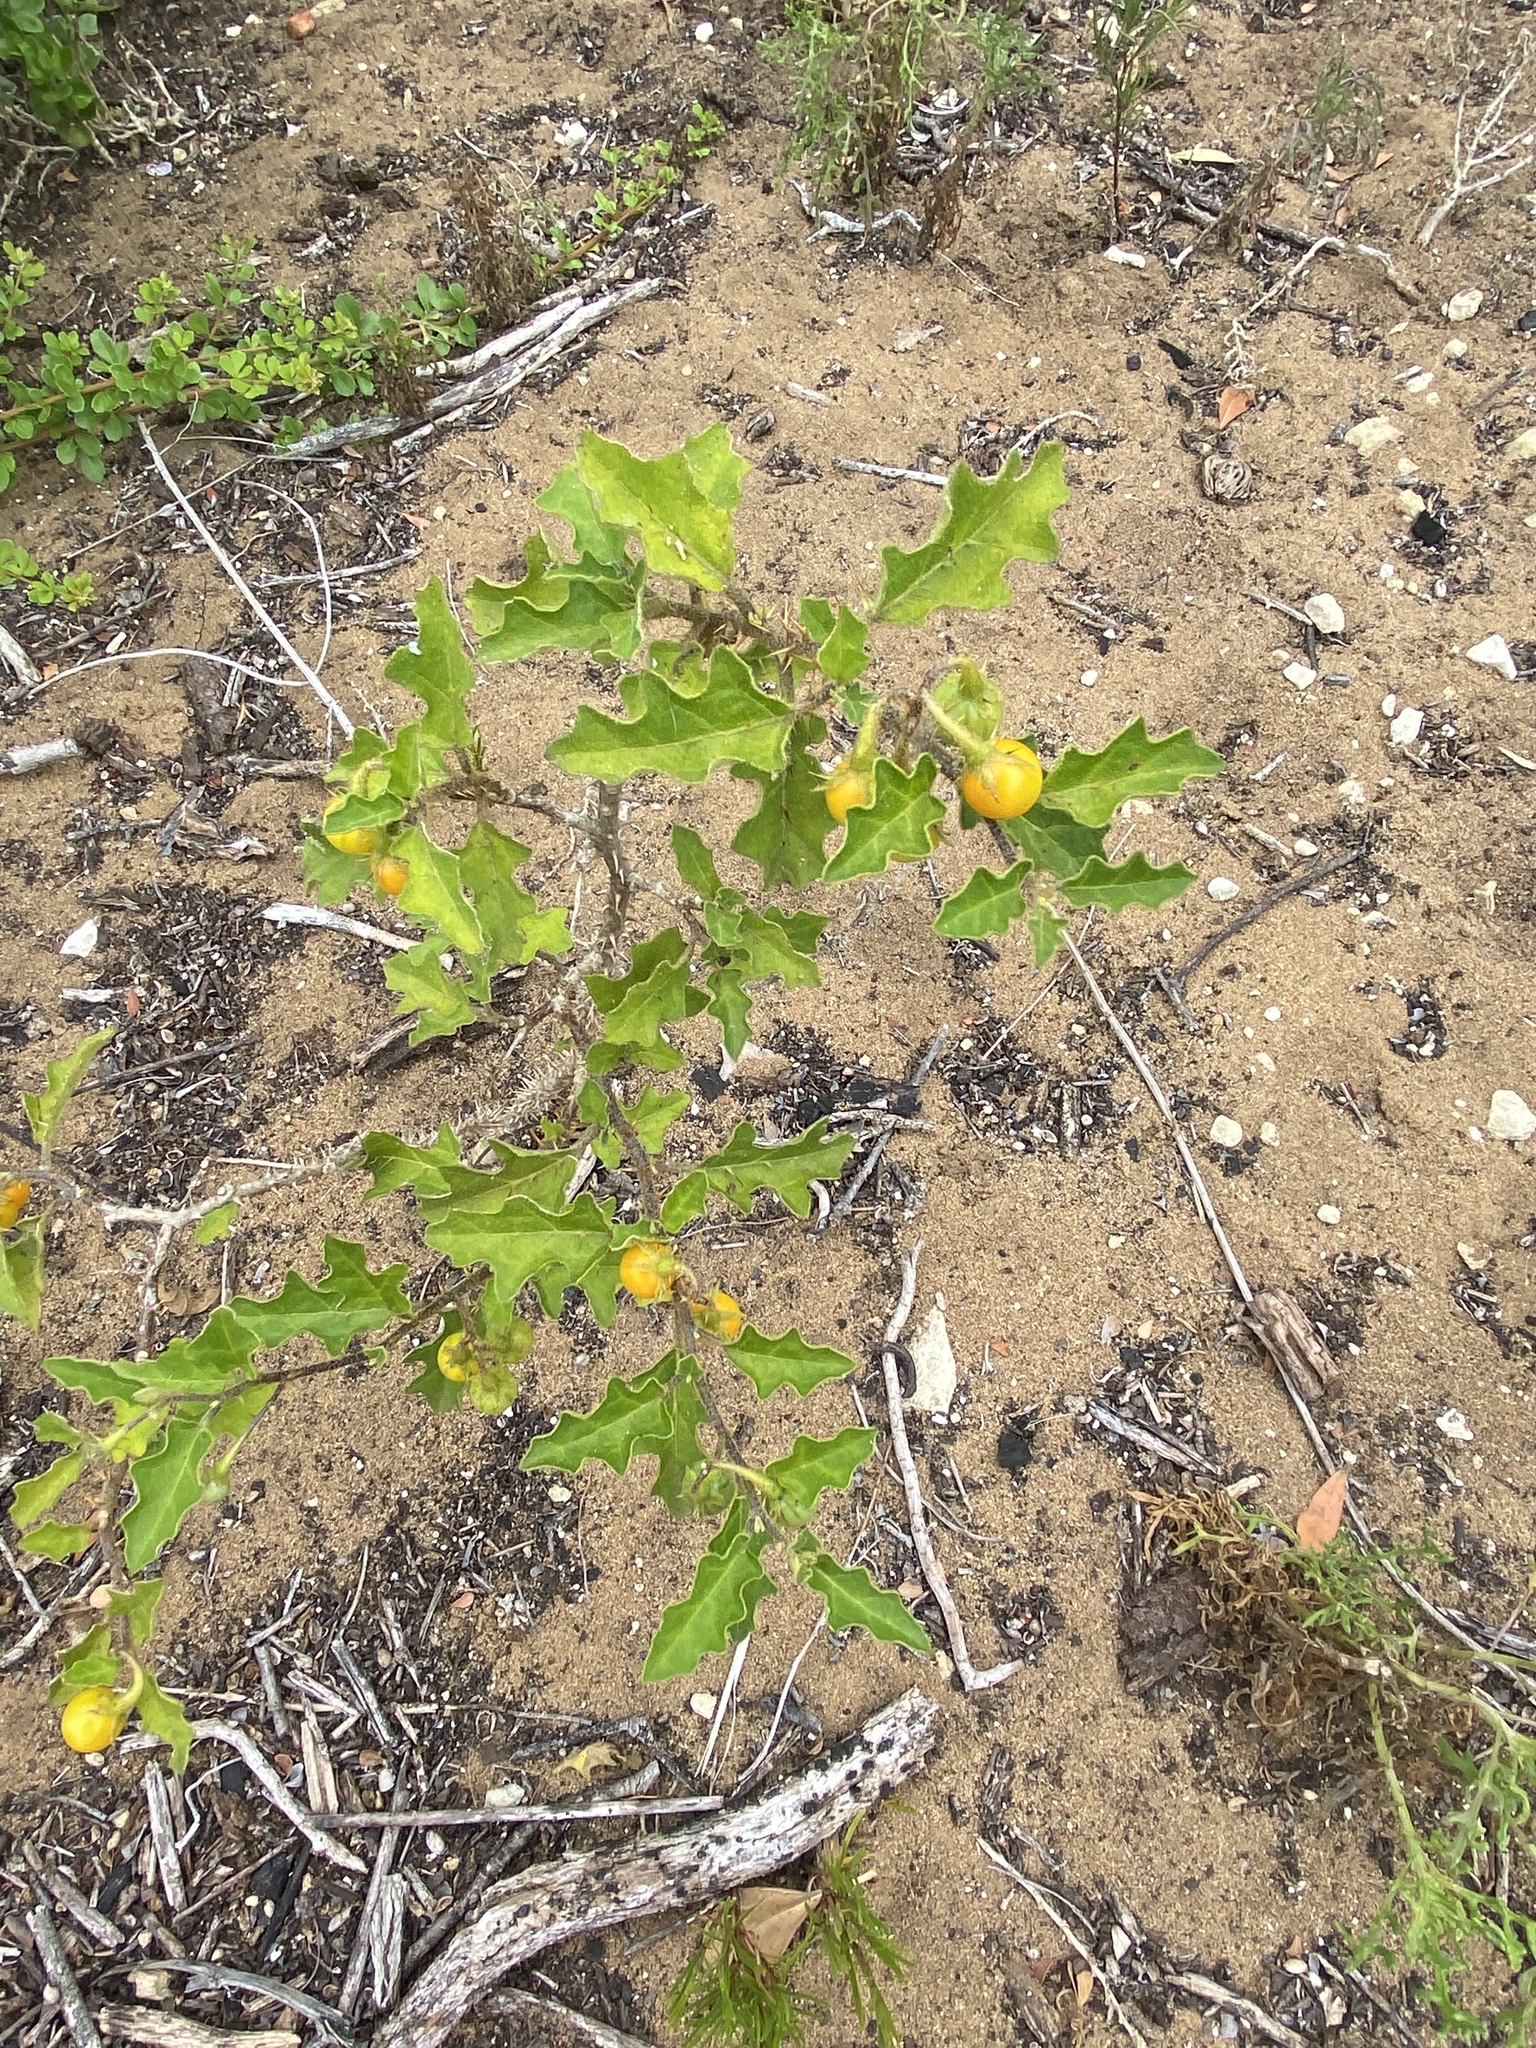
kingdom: Plantae
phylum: Tracheophyta
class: Magnoliopsida
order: Solanales
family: Solanaceae
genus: Solanum
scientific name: Solanum rubetorum
